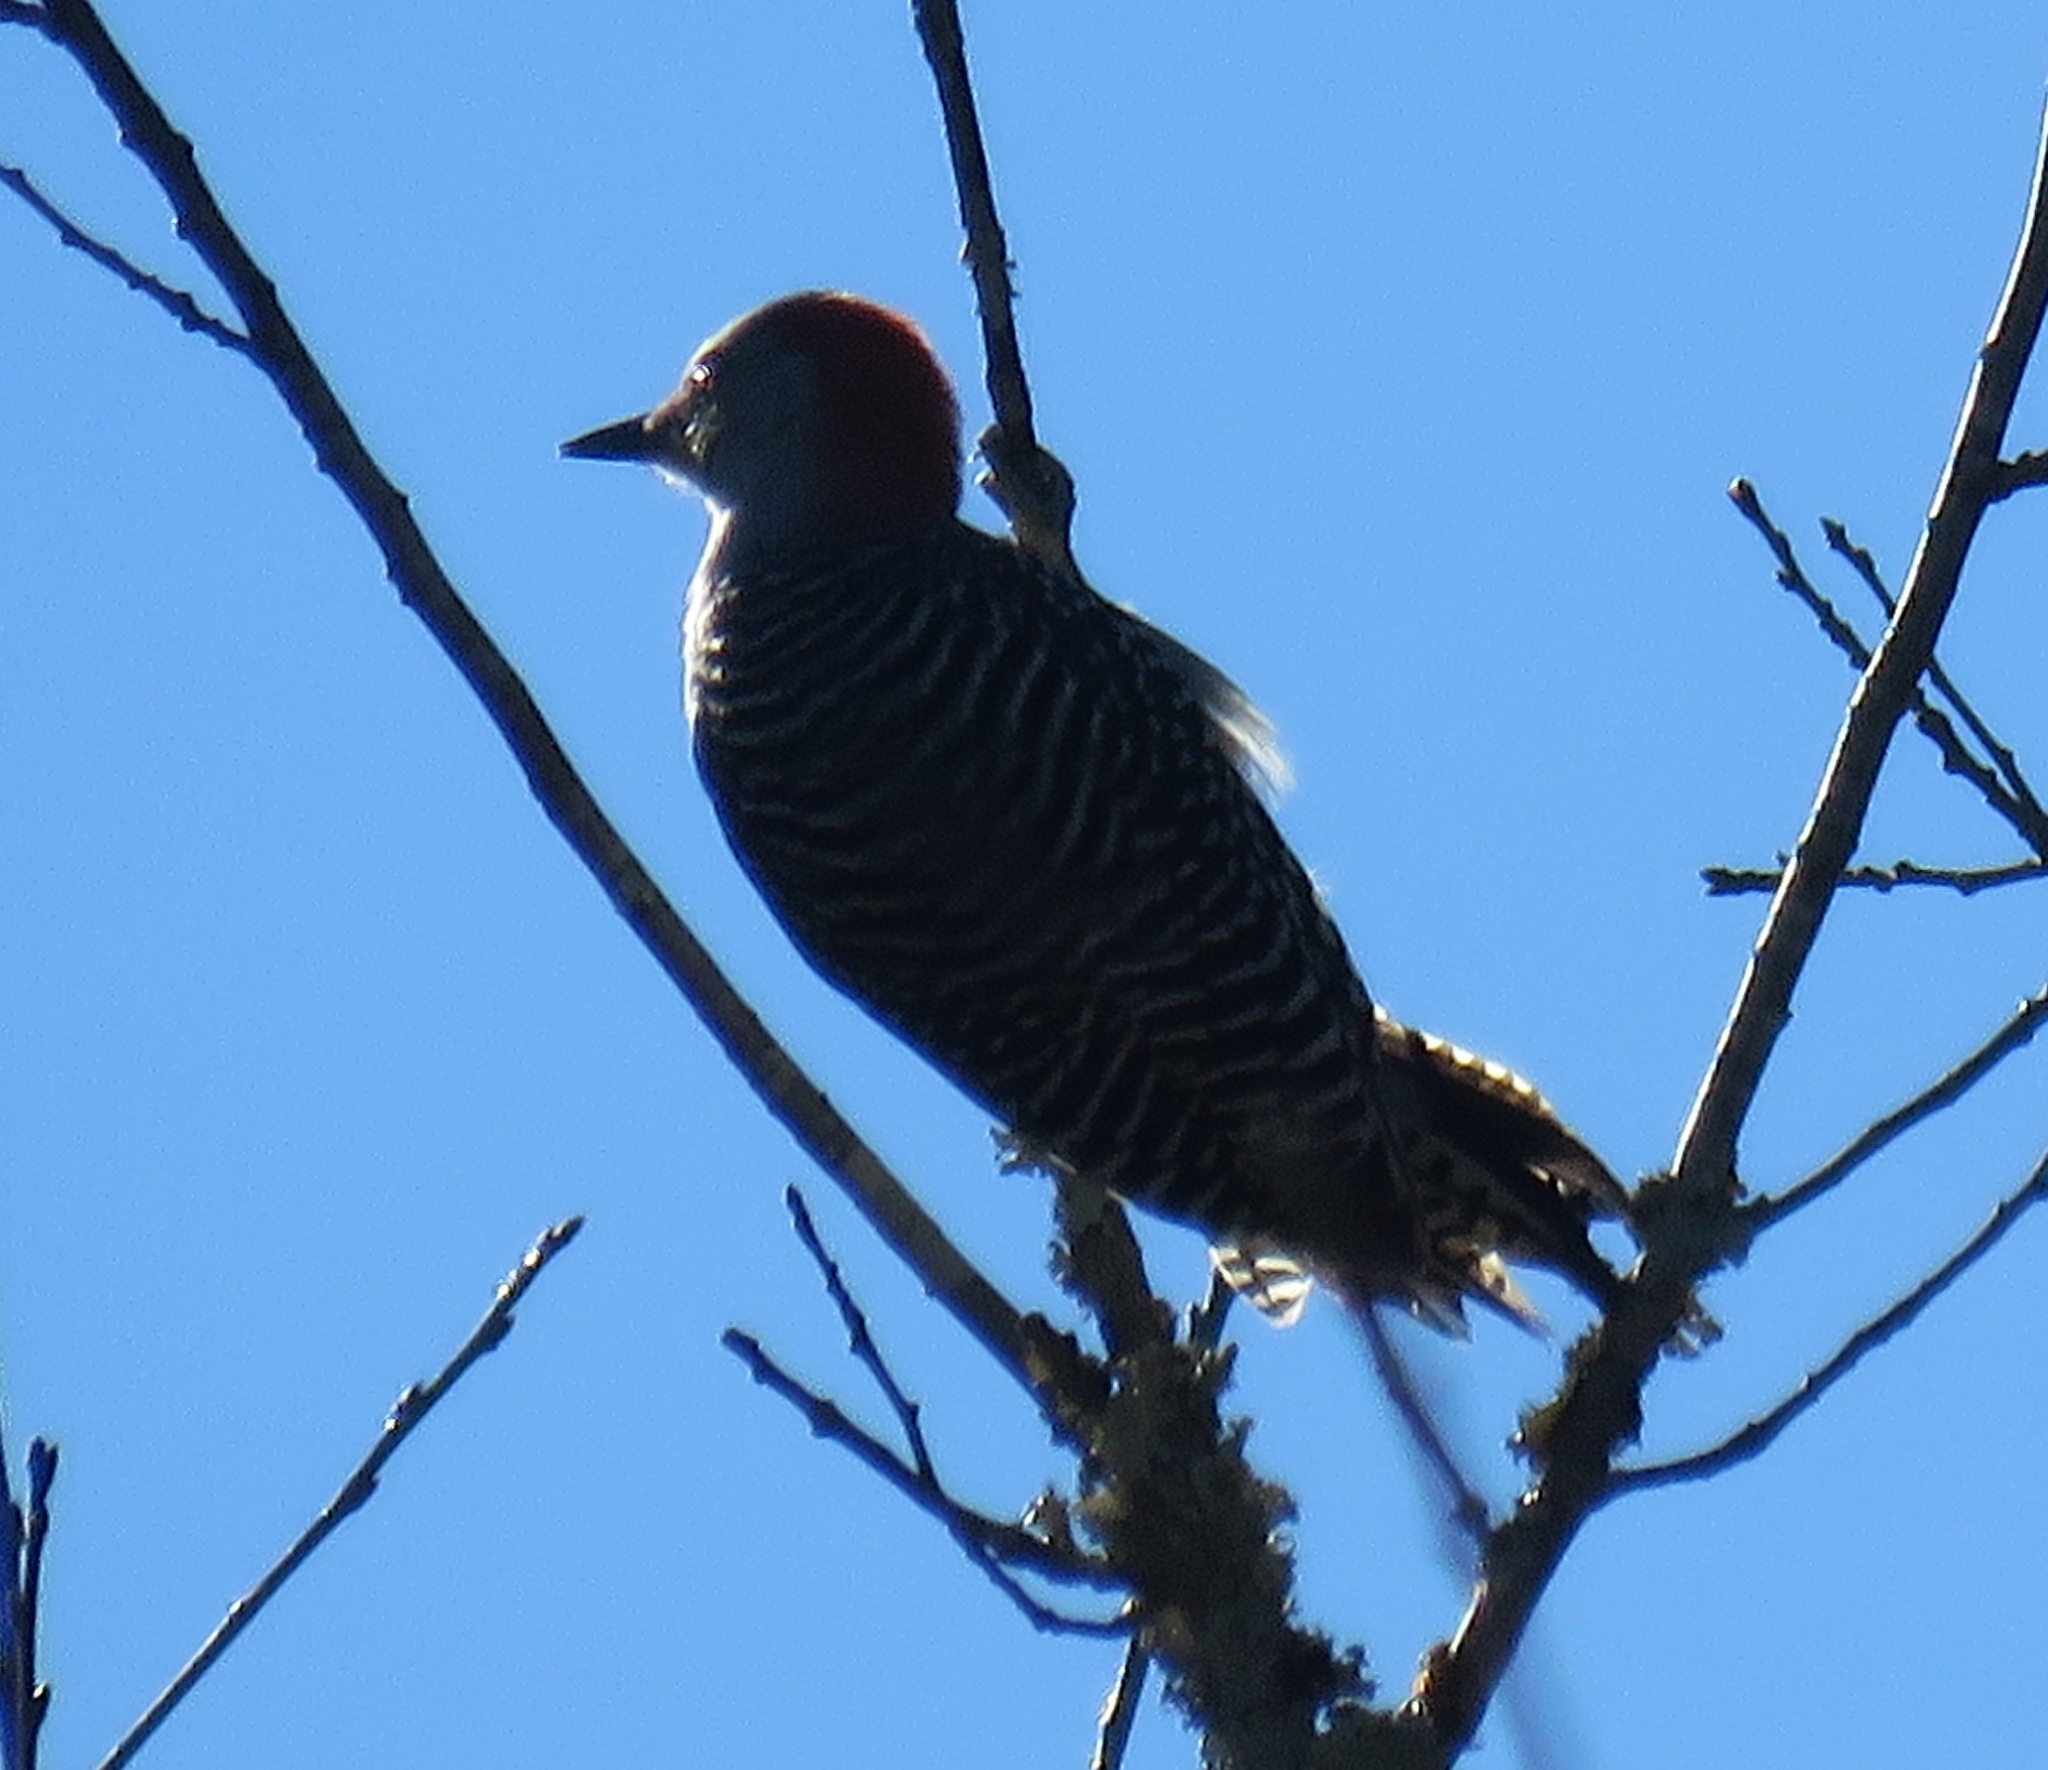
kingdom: Animalia
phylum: Chordata
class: Aves
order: Piciformes
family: Picidae
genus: Melanerpes
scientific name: Melanerpes carolinus
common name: Red-bellied woodpecker
